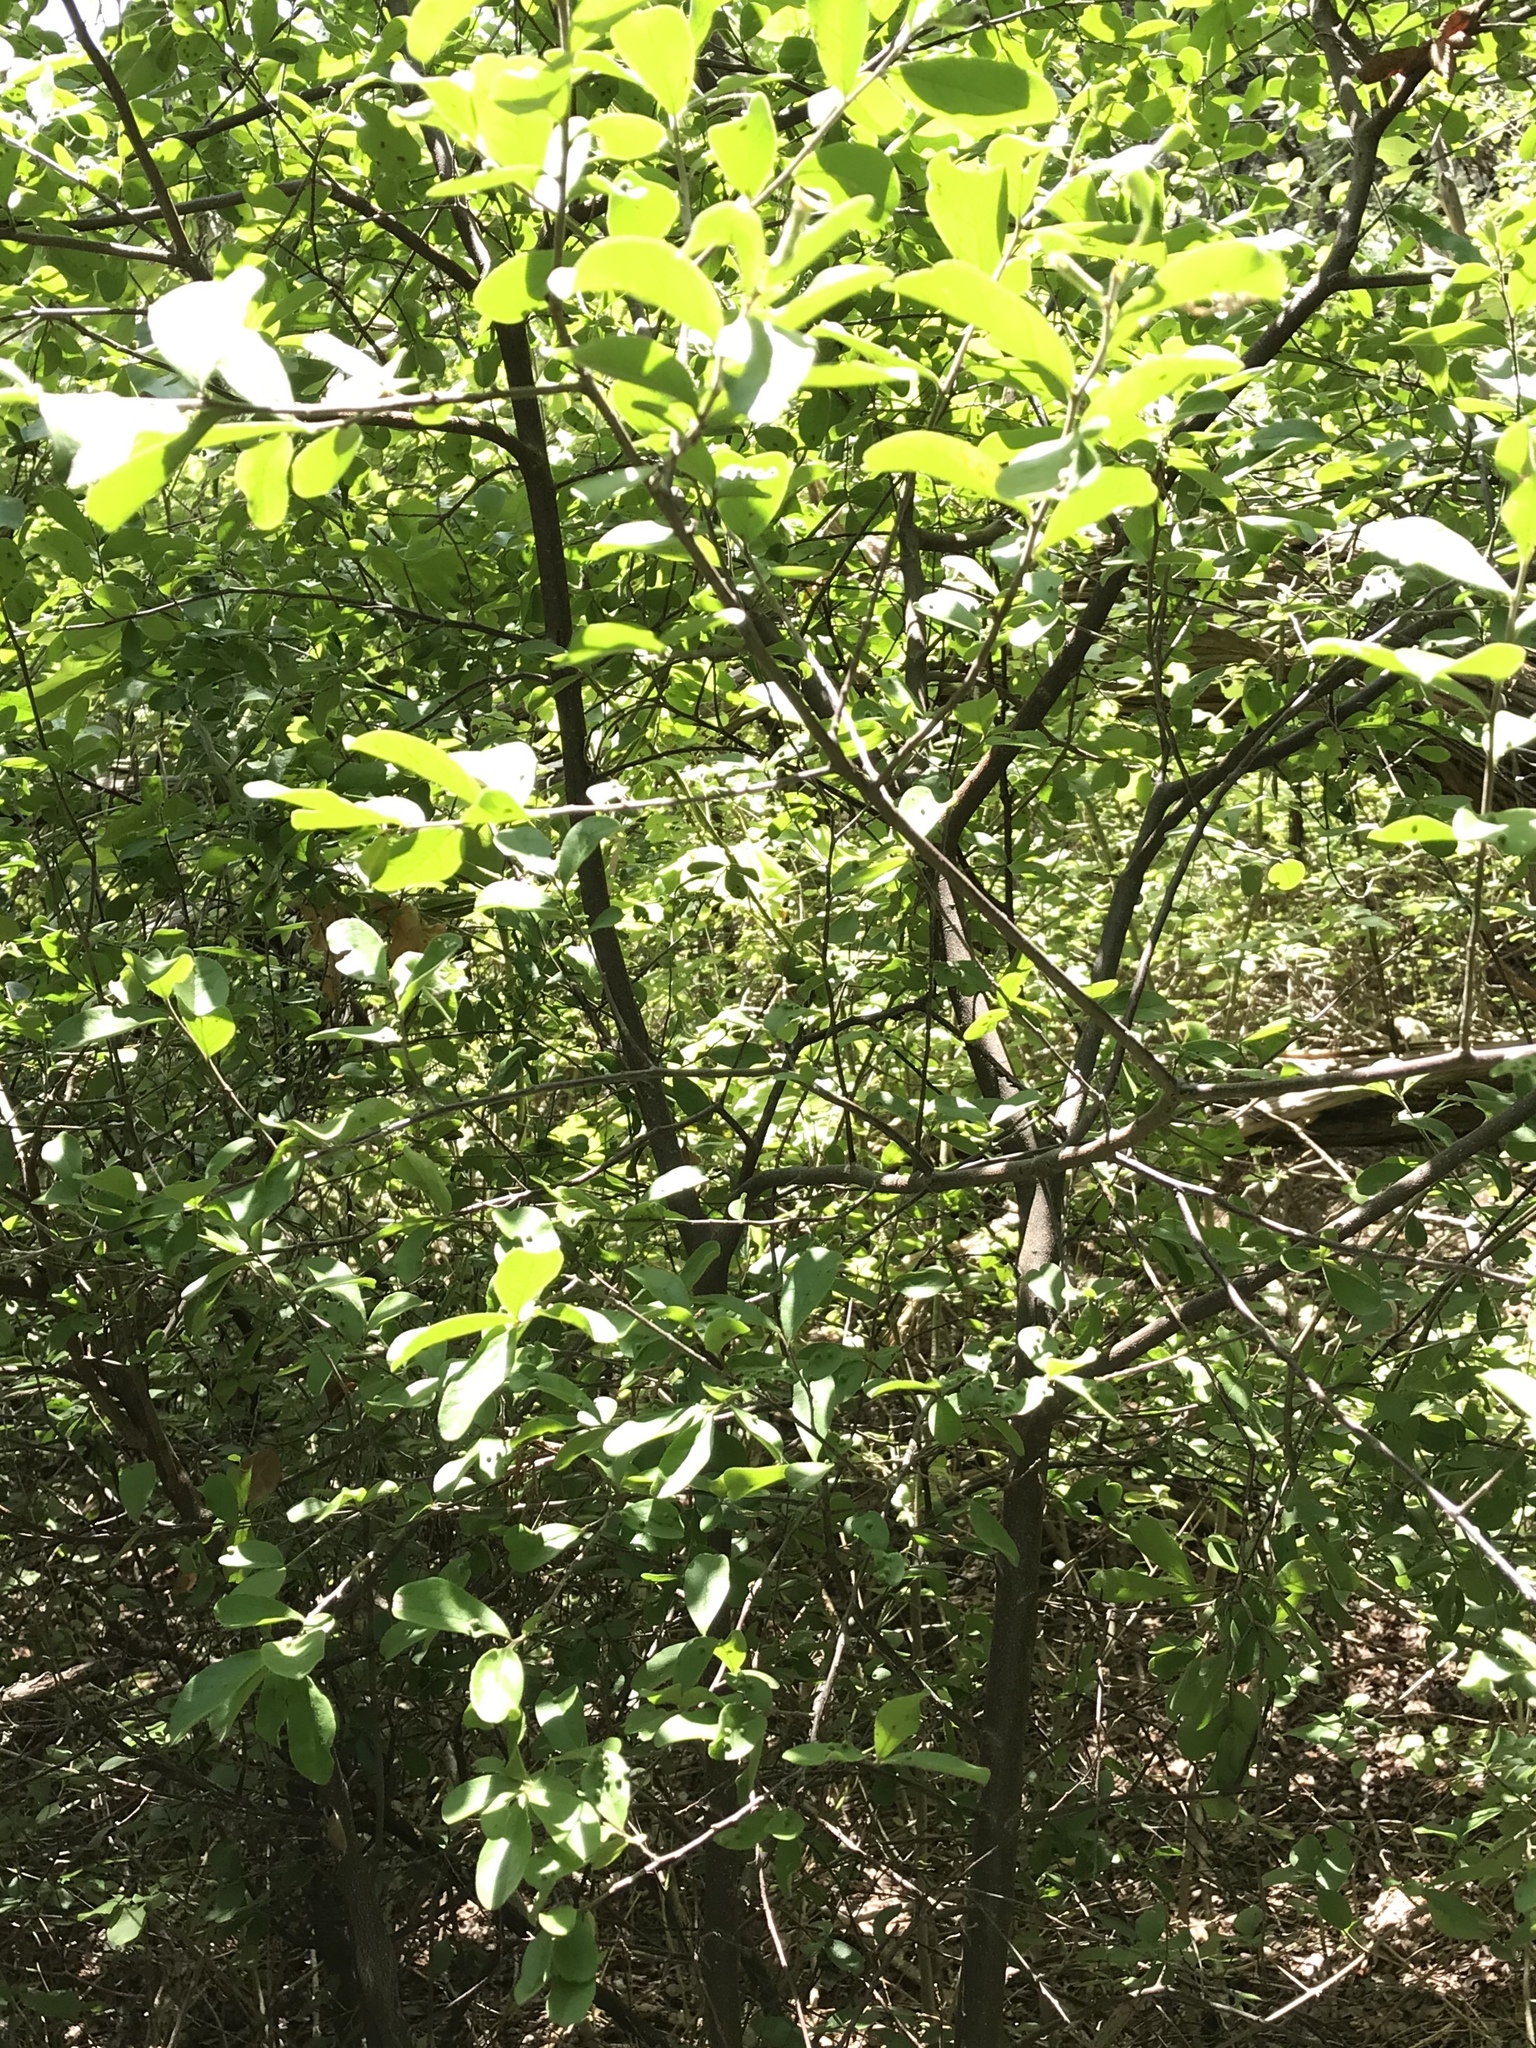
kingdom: Plantae
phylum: Tracheophyta
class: Magnoliopsida
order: Ericales
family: Ebenaceae
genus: Diospyros
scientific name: Diospyros texana
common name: Texas persimmon
